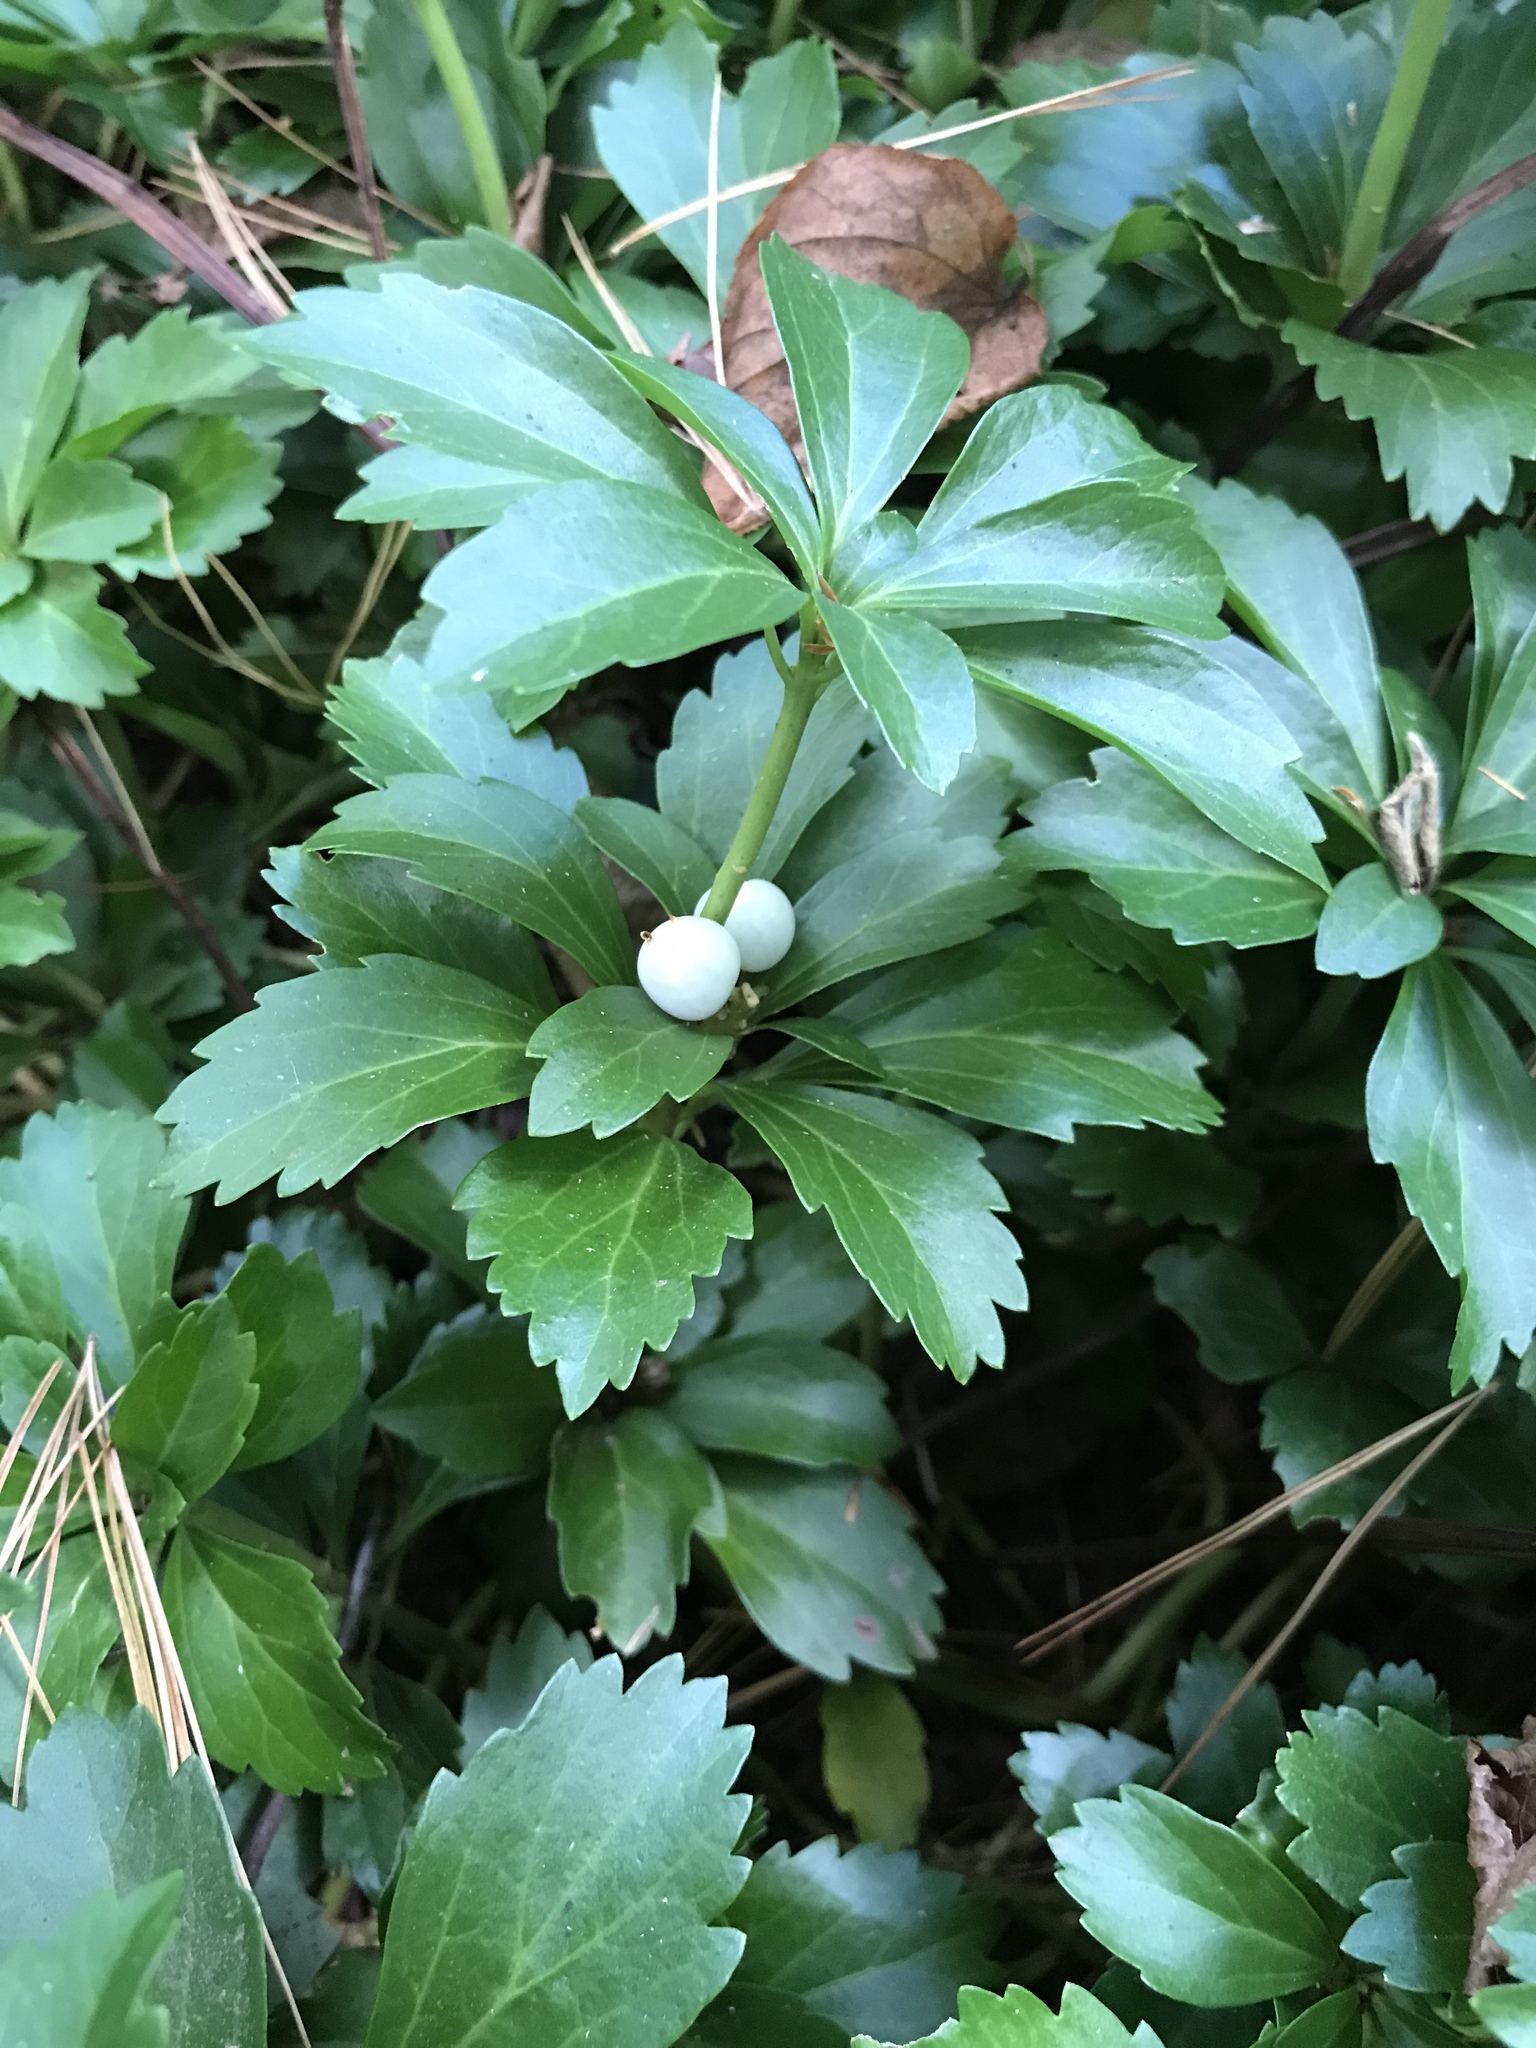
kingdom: Plantae
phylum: Tracheophyta
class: Magnoliopsida
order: Buxales
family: Buxaceae
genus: Pachysandra
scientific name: Pachysandra terminalis
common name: Japanese pachysandra
